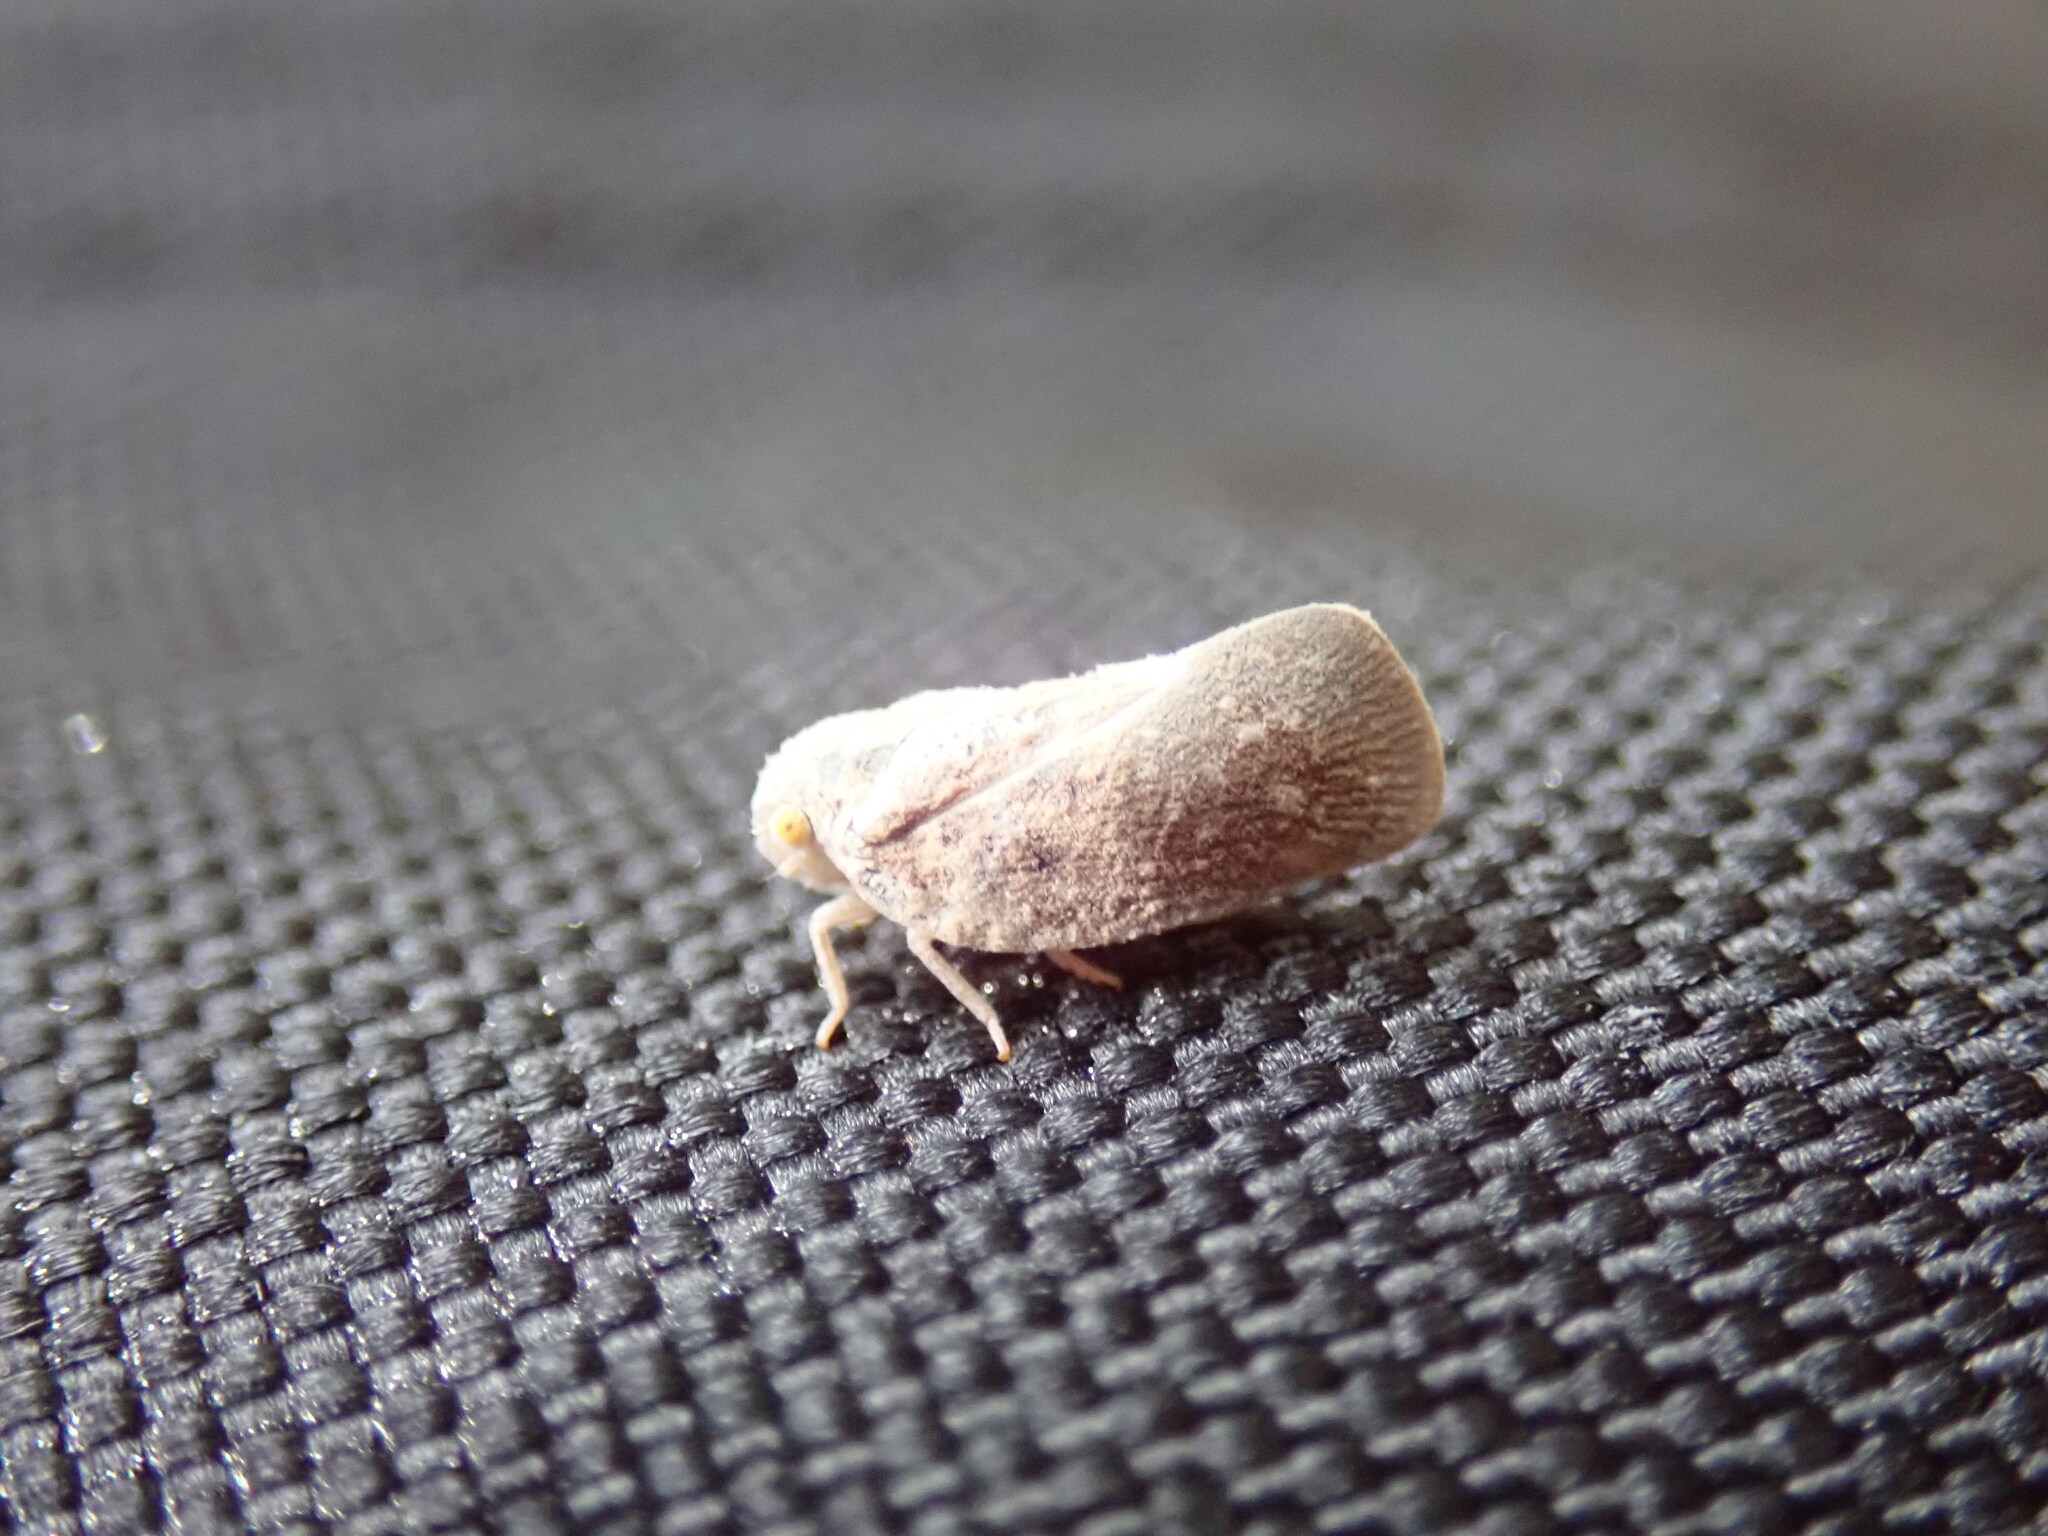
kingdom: Animalia
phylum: Arthropoda
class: Insecta
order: Hemiptera
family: Flatidae
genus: Metcalfa
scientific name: Metcalfa pruinosa
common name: Citrus flatid planthopper
